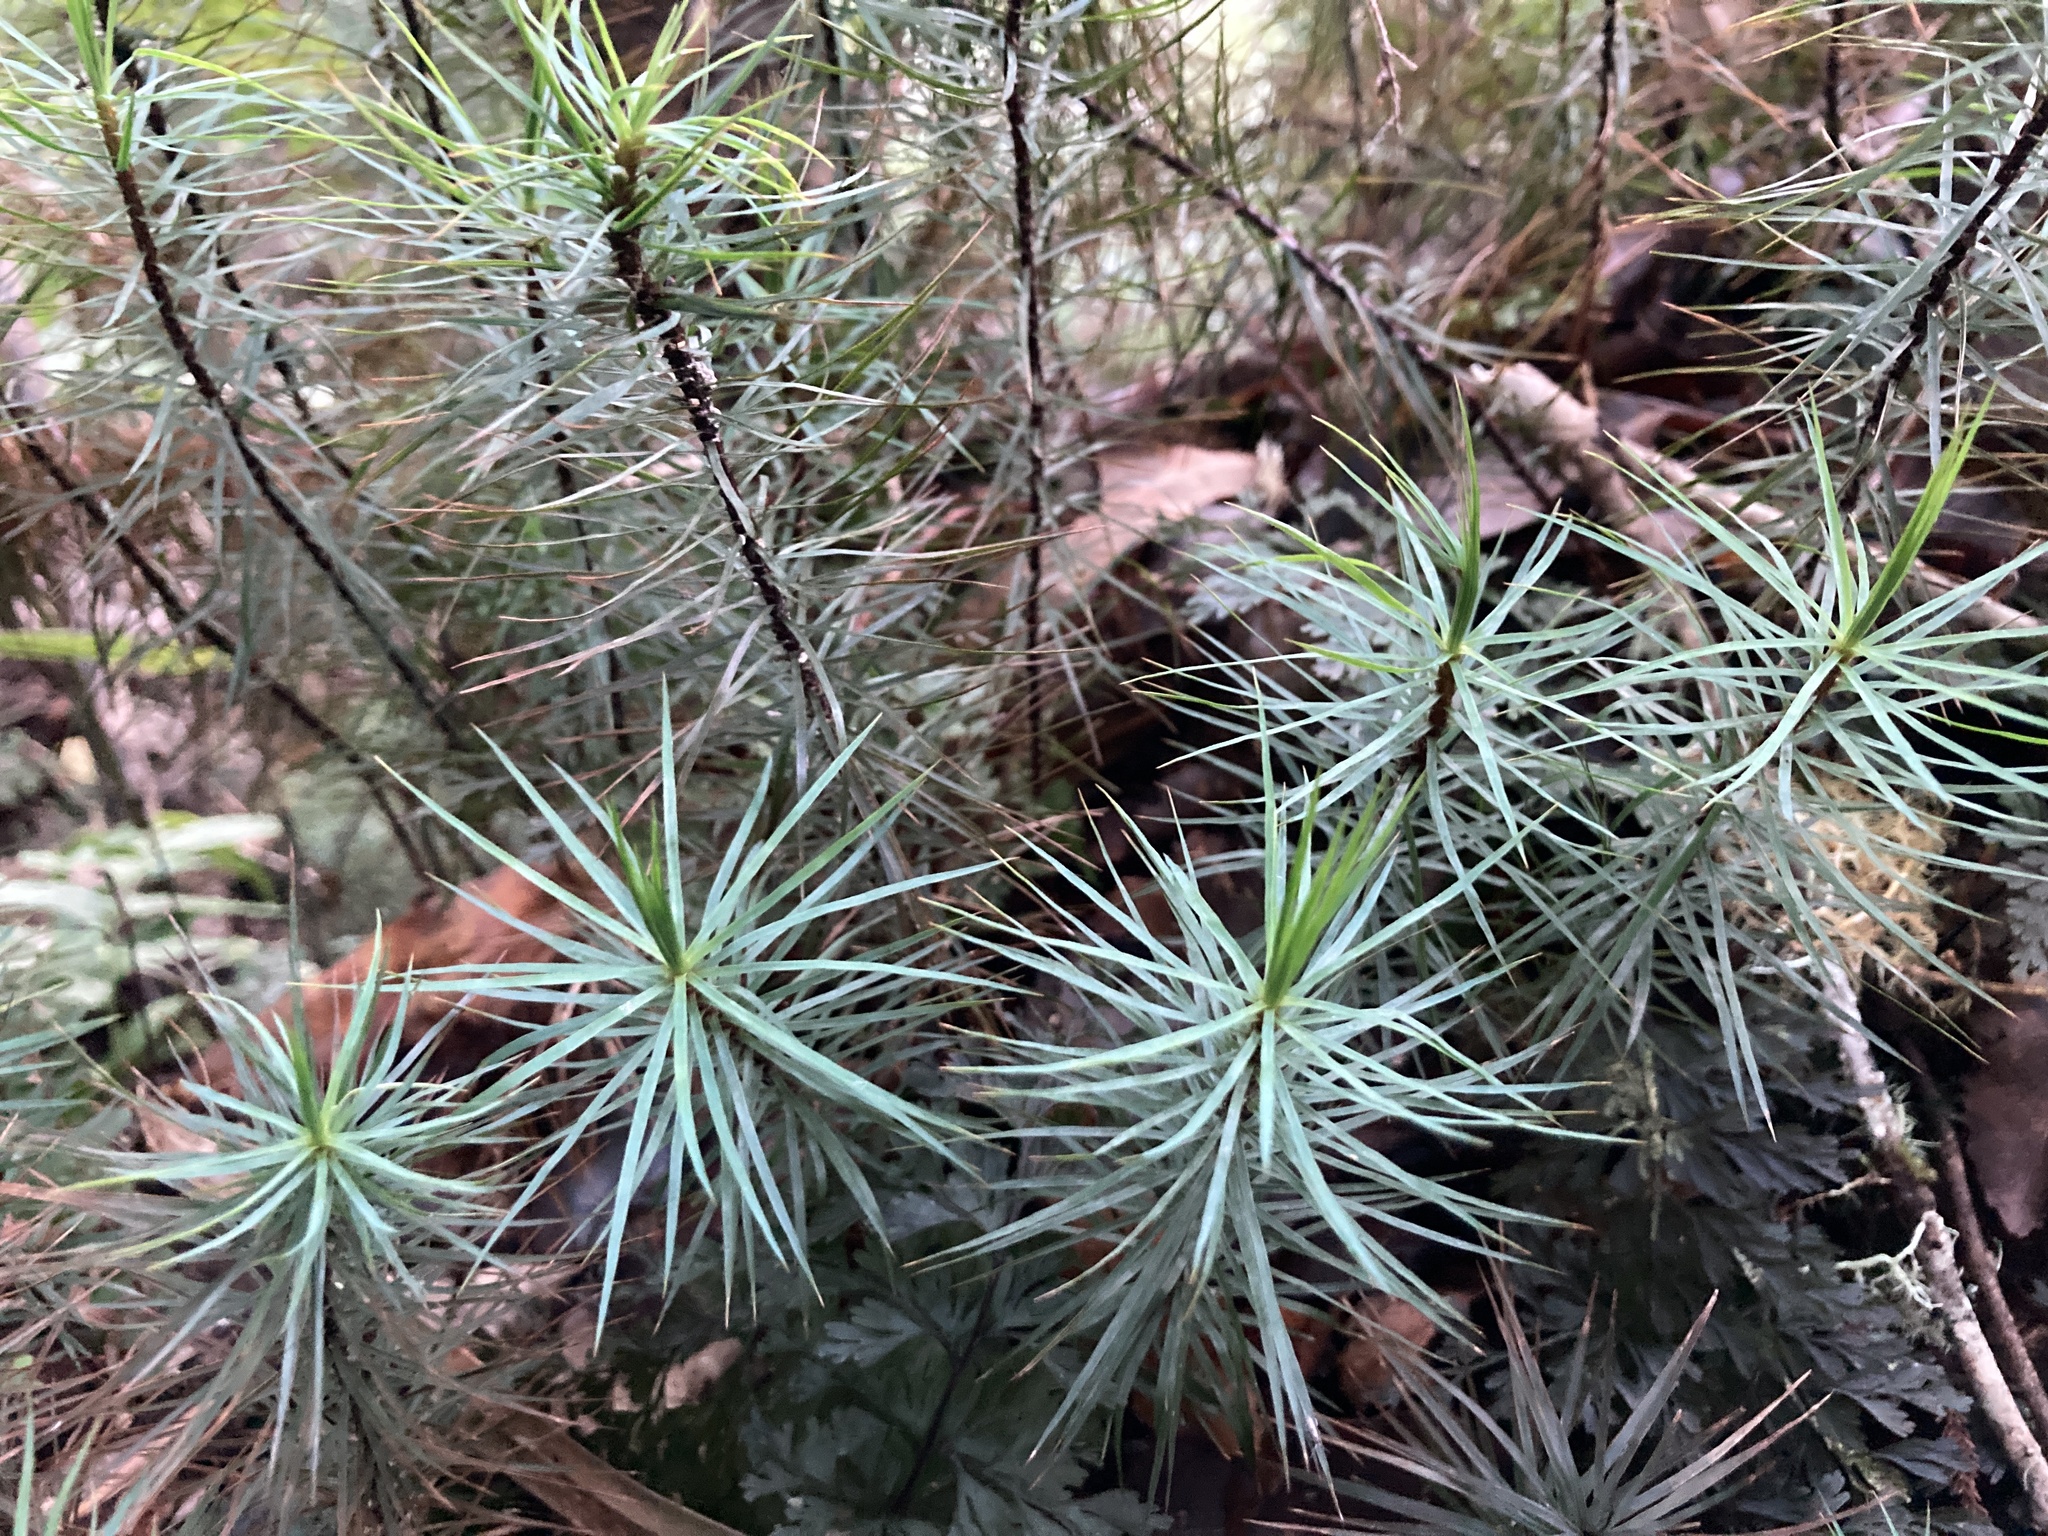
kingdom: Plantae
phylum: Bryophyta
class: Polytrichopsida
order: Polytrichales
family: Polytrichaceae
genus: Dawsonia
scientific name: Dawsonia superba
